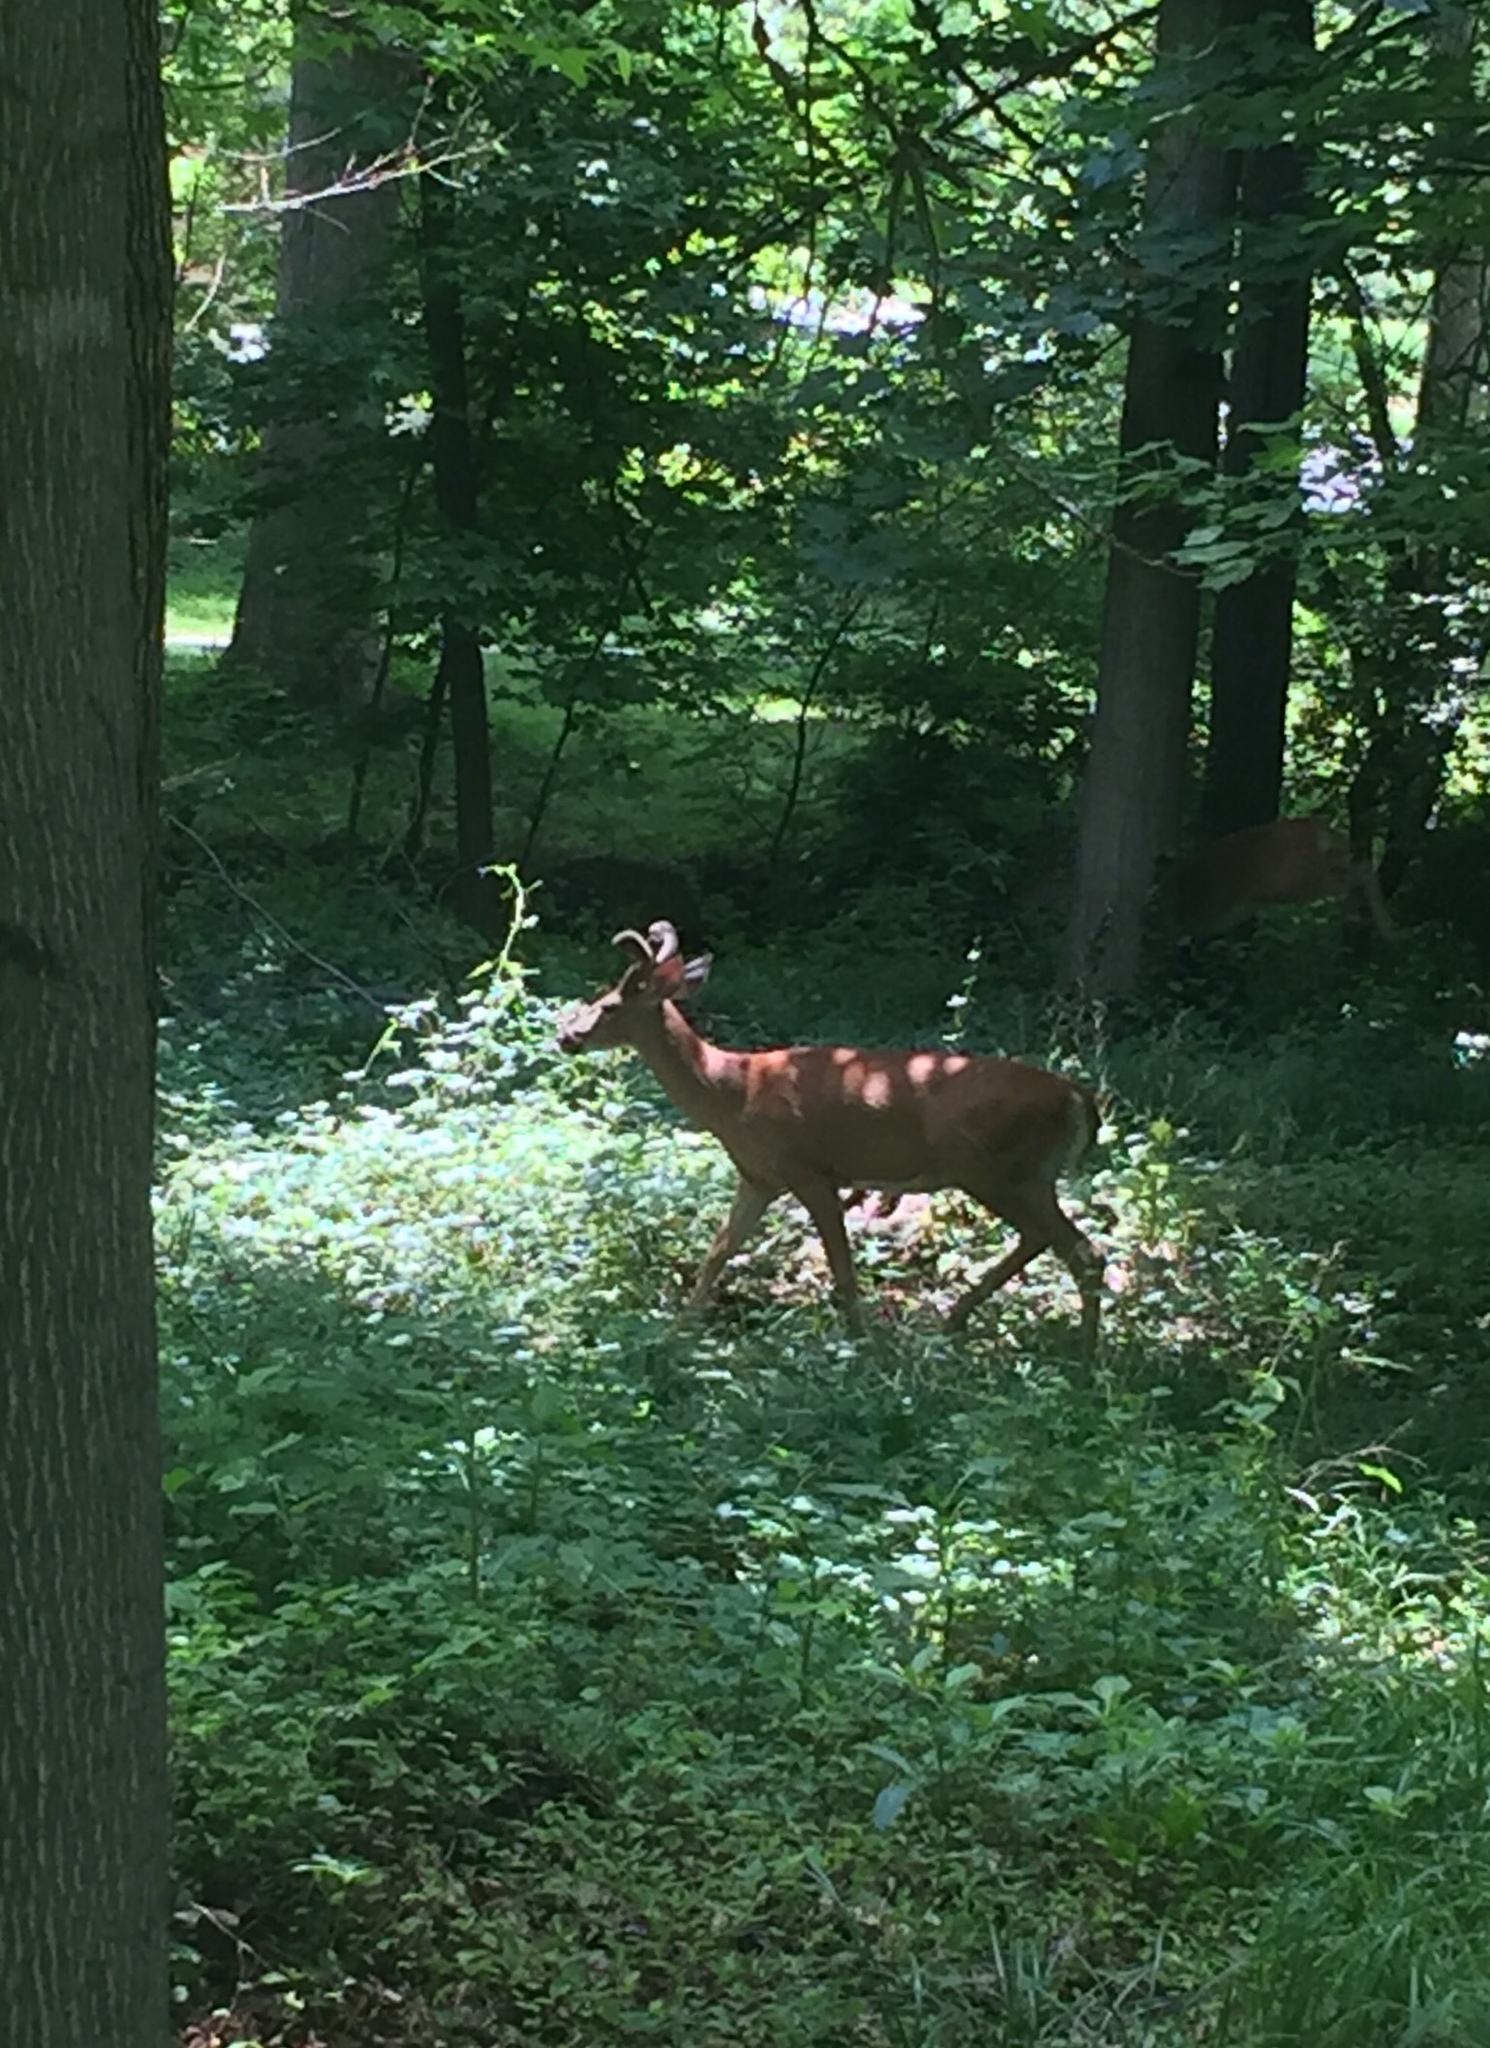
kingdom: Animalia
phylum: Chordata
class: Mammalia
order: Artiodactyla
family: Cervidae
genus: Odocoileus
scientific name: Odocoileus virginianus
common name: White-tailed deer
